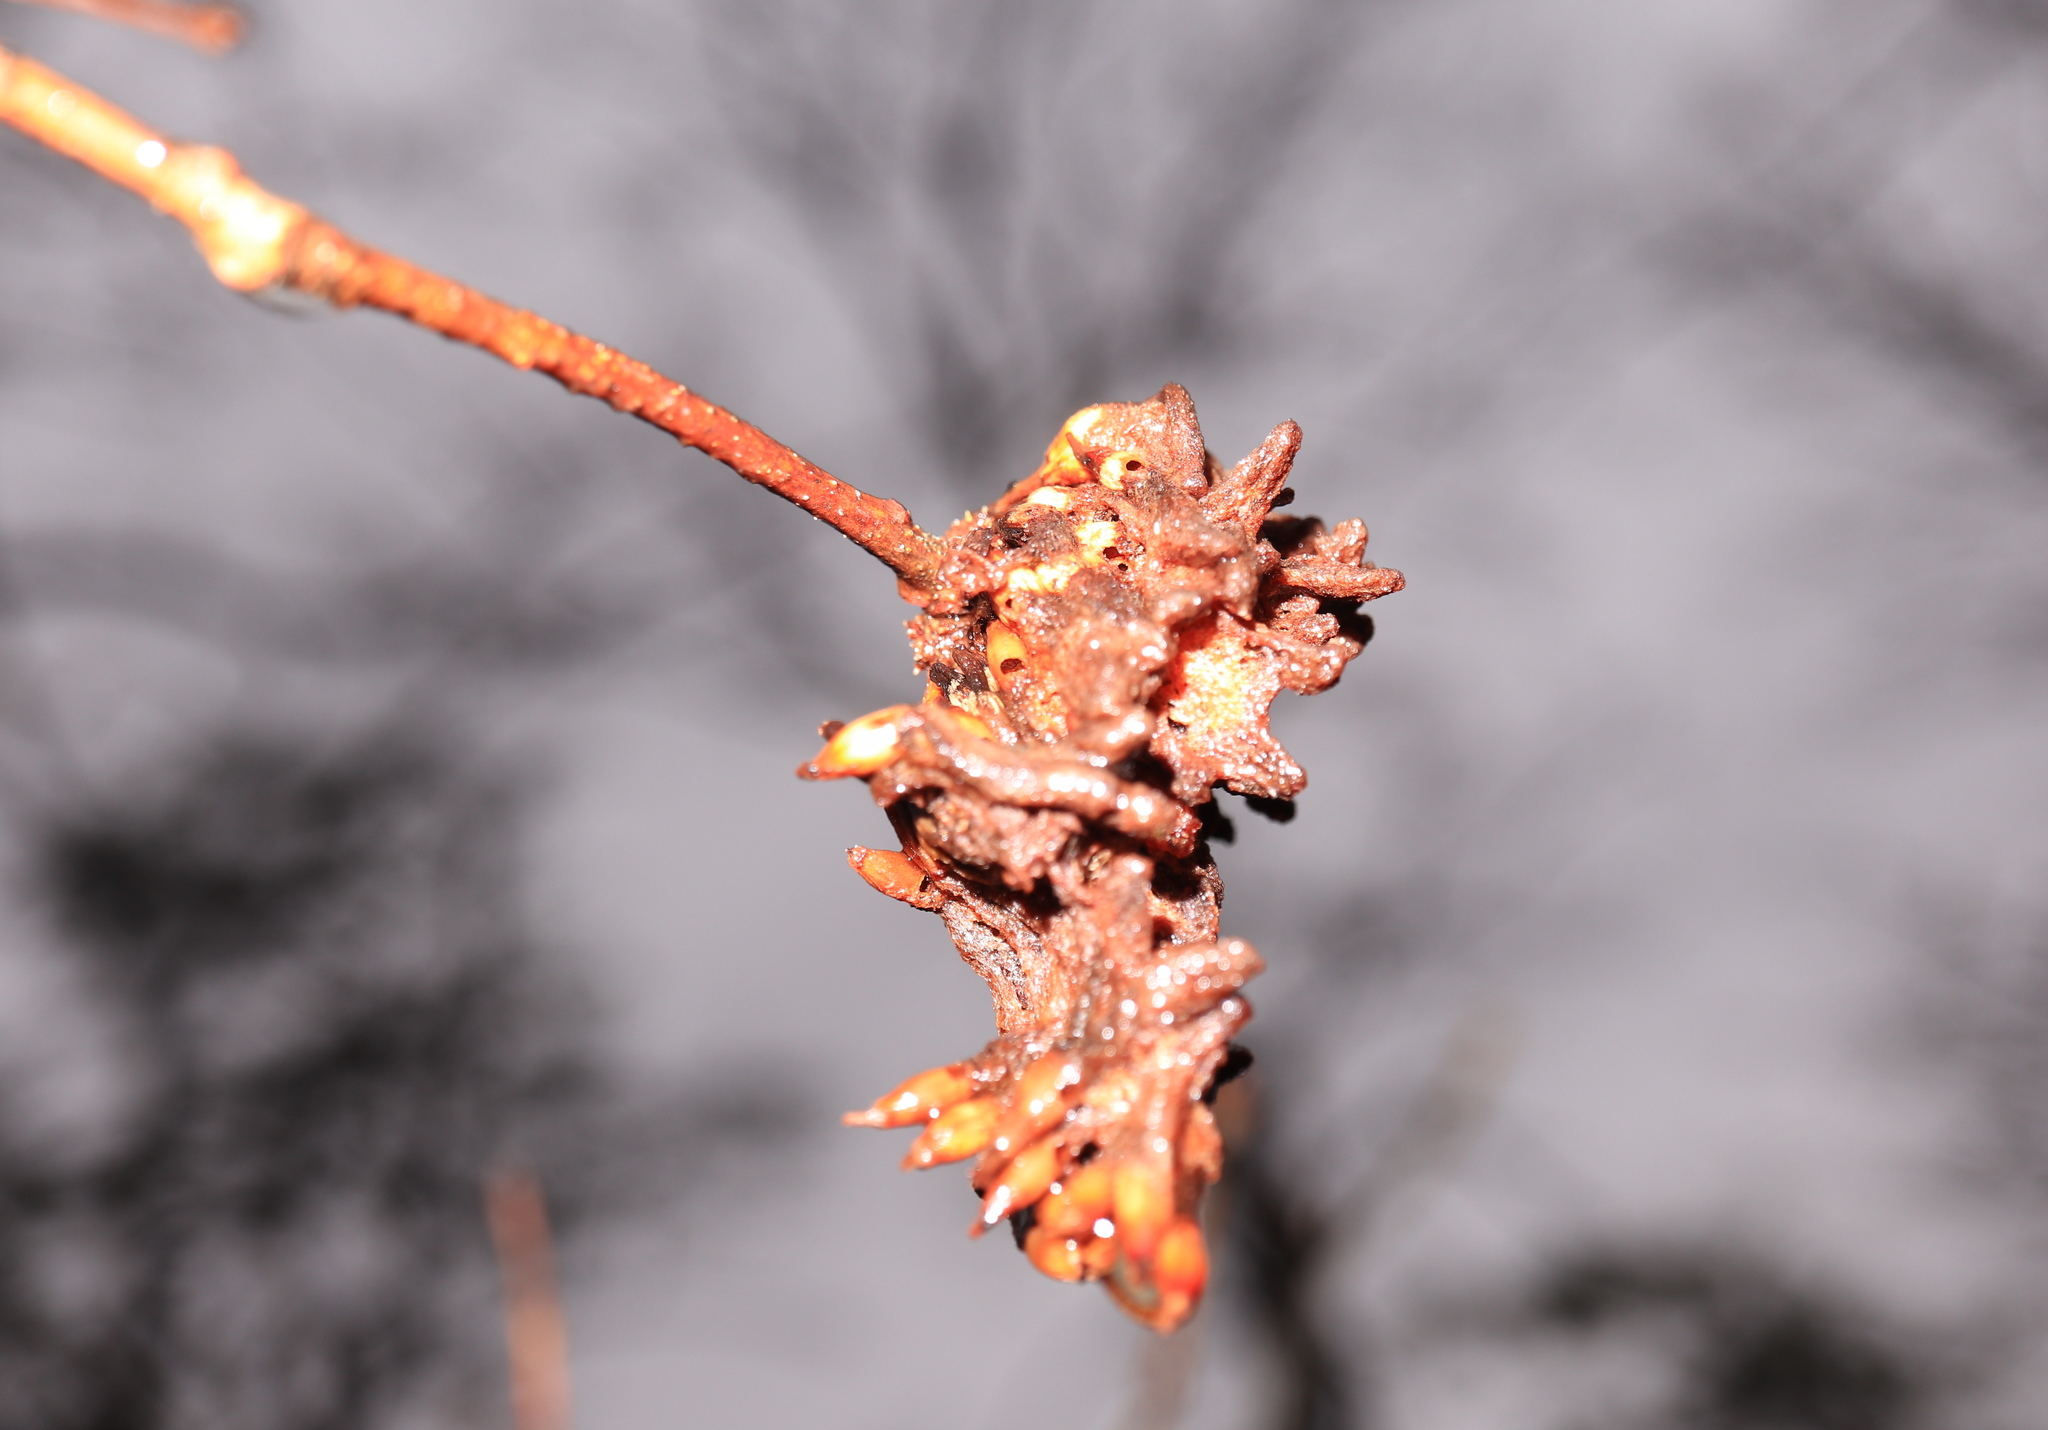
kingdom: Animalia
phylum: Arthropoda
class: Insecta
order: Hymenoptera
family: Cynipidae
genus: Callirhytis
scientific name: Callirhytis
